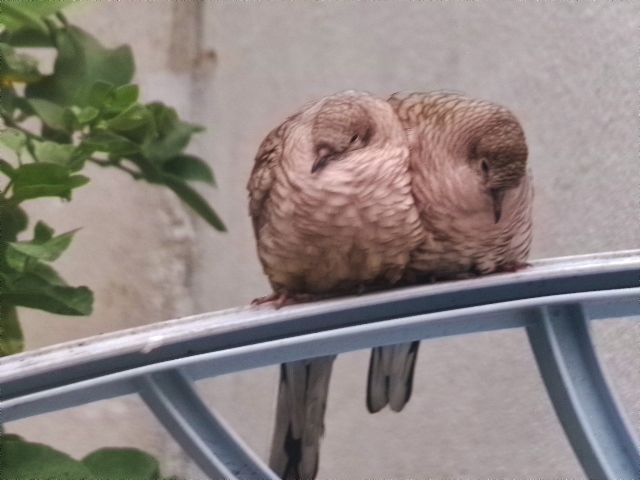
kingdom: Animalia
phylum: Chordata
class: Aves
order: Columbiformes
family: Columbidae
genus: Columbina
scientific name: Columbina inca
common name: Inca dove
